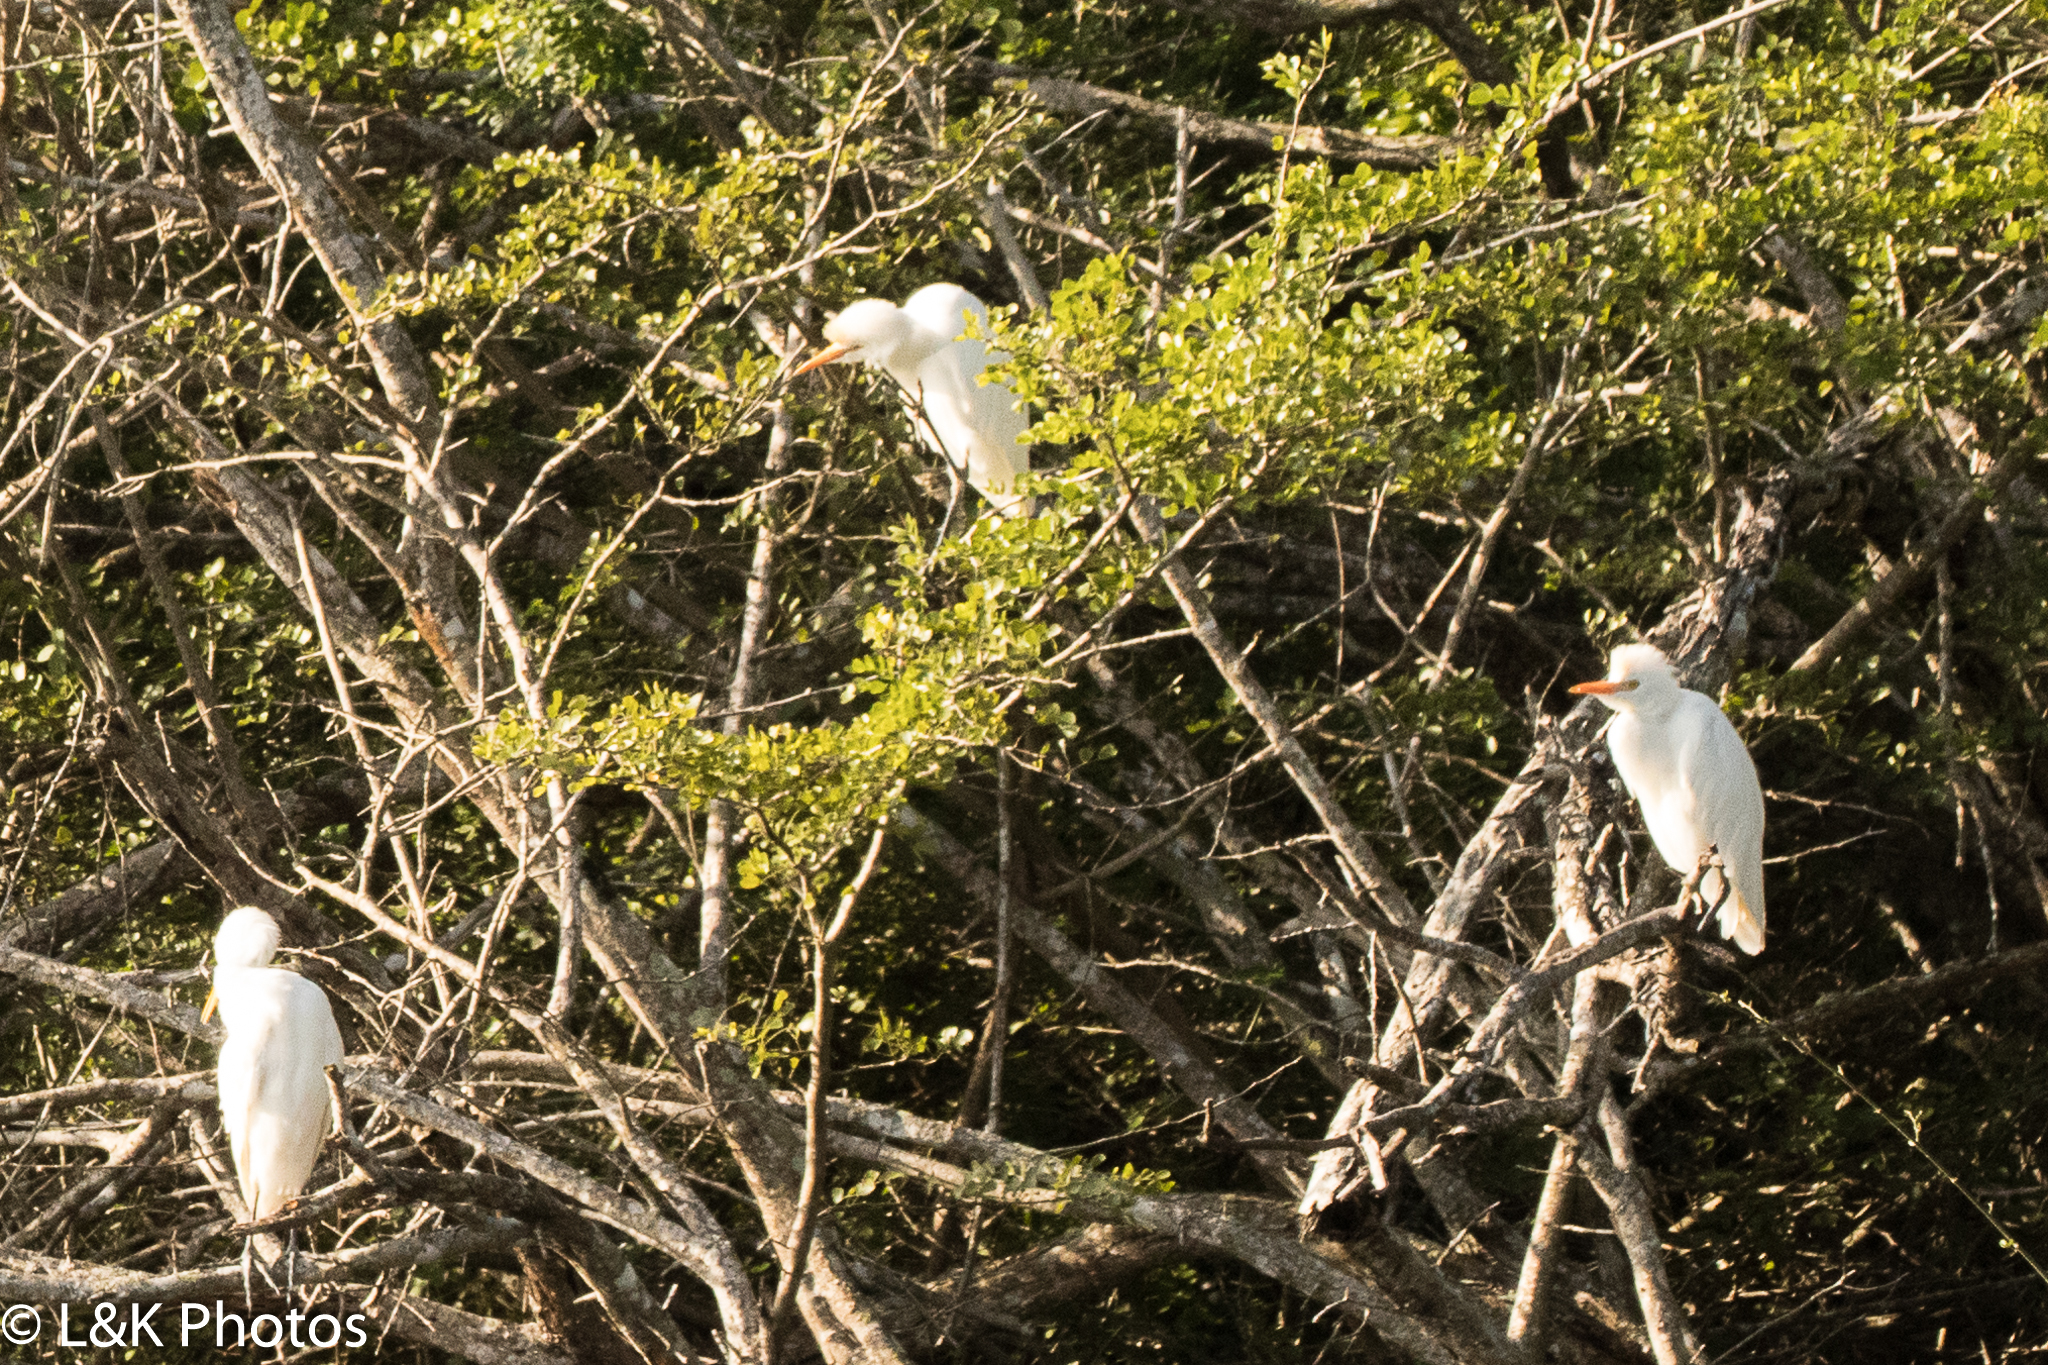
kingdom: Animalia
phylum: Chordata
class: Aves
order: Pelecaniformes
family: Ardeidae
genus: Bubulcus
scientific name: Bubulcus ibis
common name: Cattle egret
